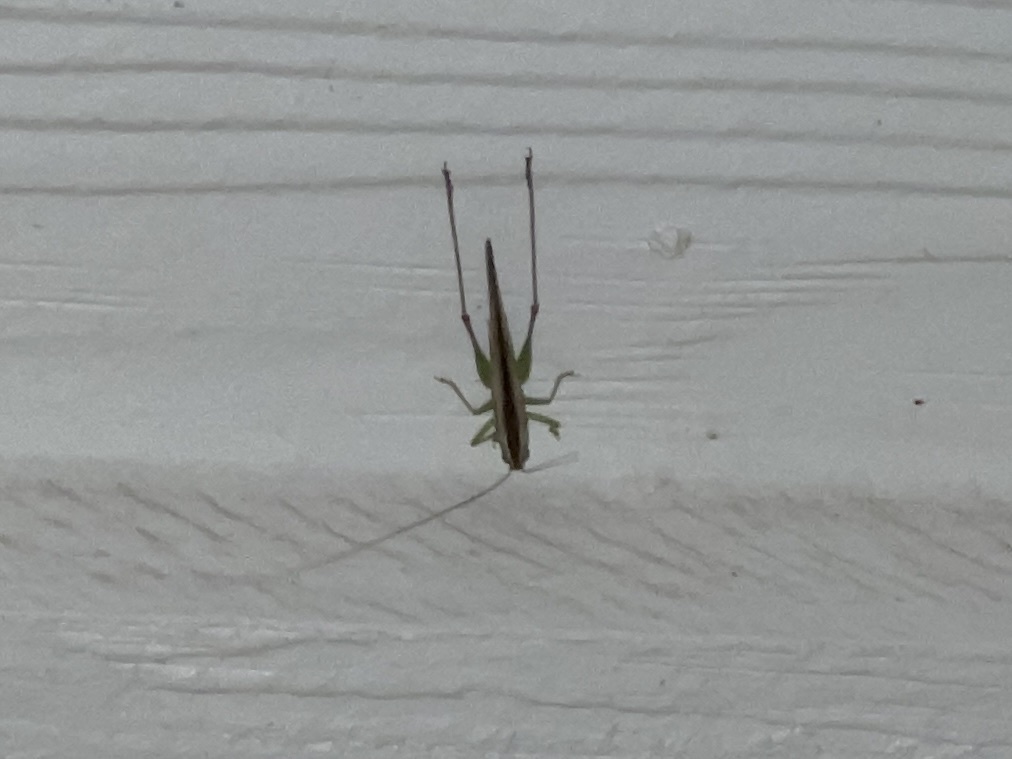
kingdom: Animalia
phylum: Arthropoda
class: Insecta
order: Orthoptera
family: Tettigoniidae
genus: Orchelimum
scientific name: Orchelimum unispina
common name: Arizona meadow katydid
